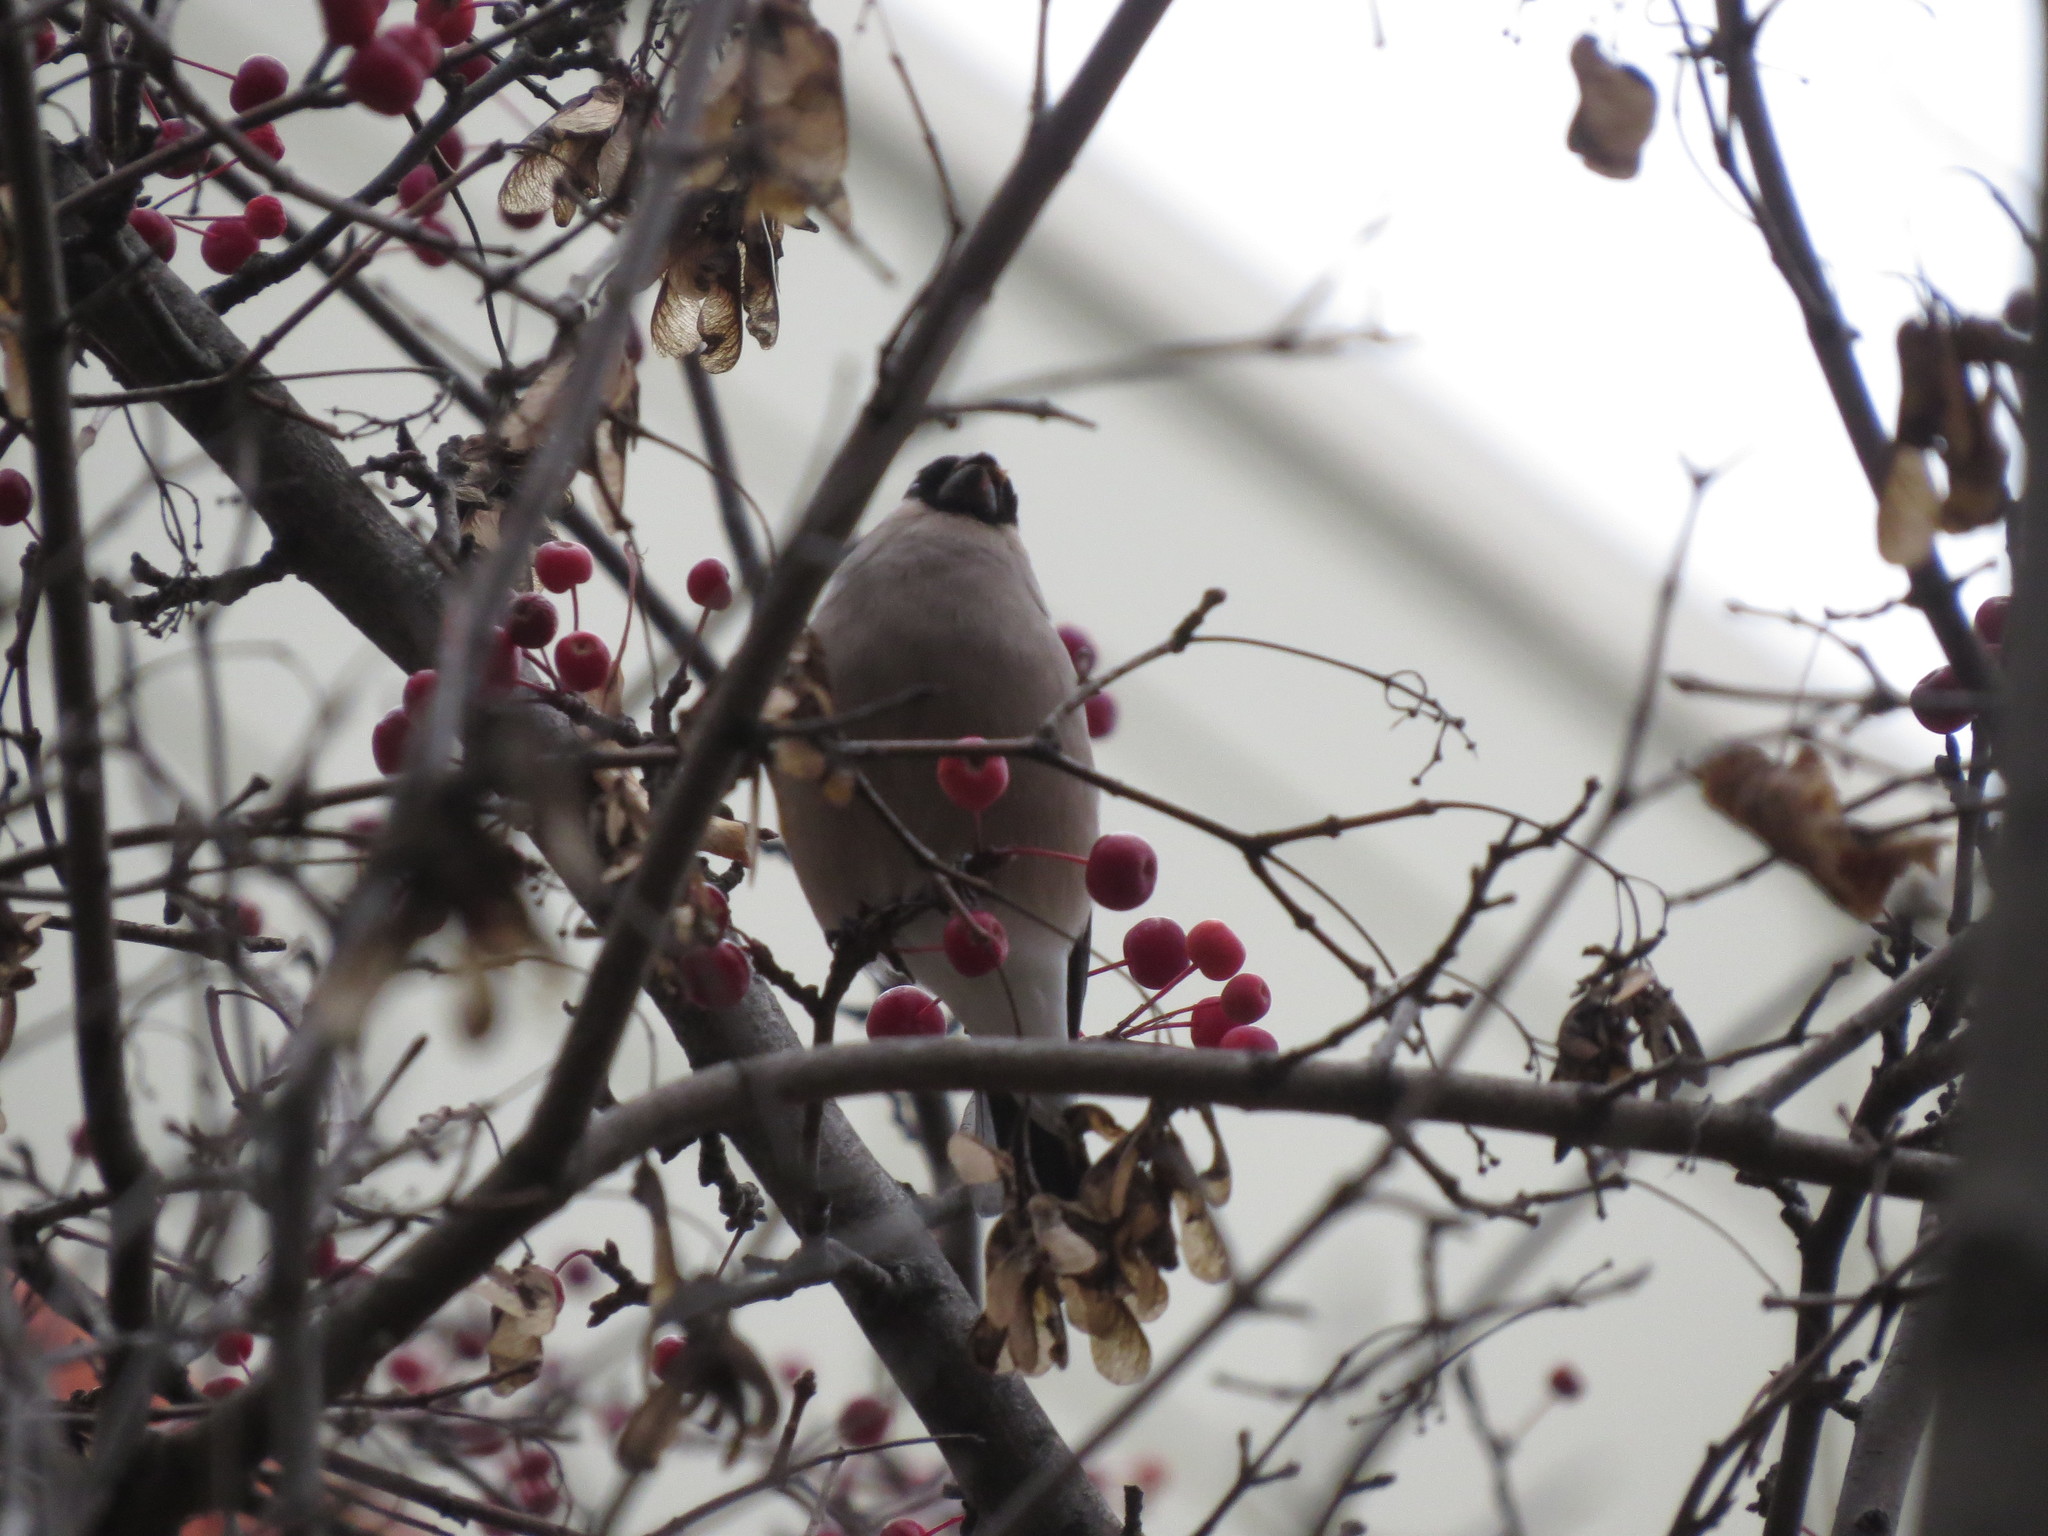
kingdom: Animalia
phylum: Chordata
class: Aves
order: Passeriformes
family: Fringillidae
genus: Pyrrhula
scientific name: Pyrrhula pyrrhula
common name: Eurasian bullfinch
